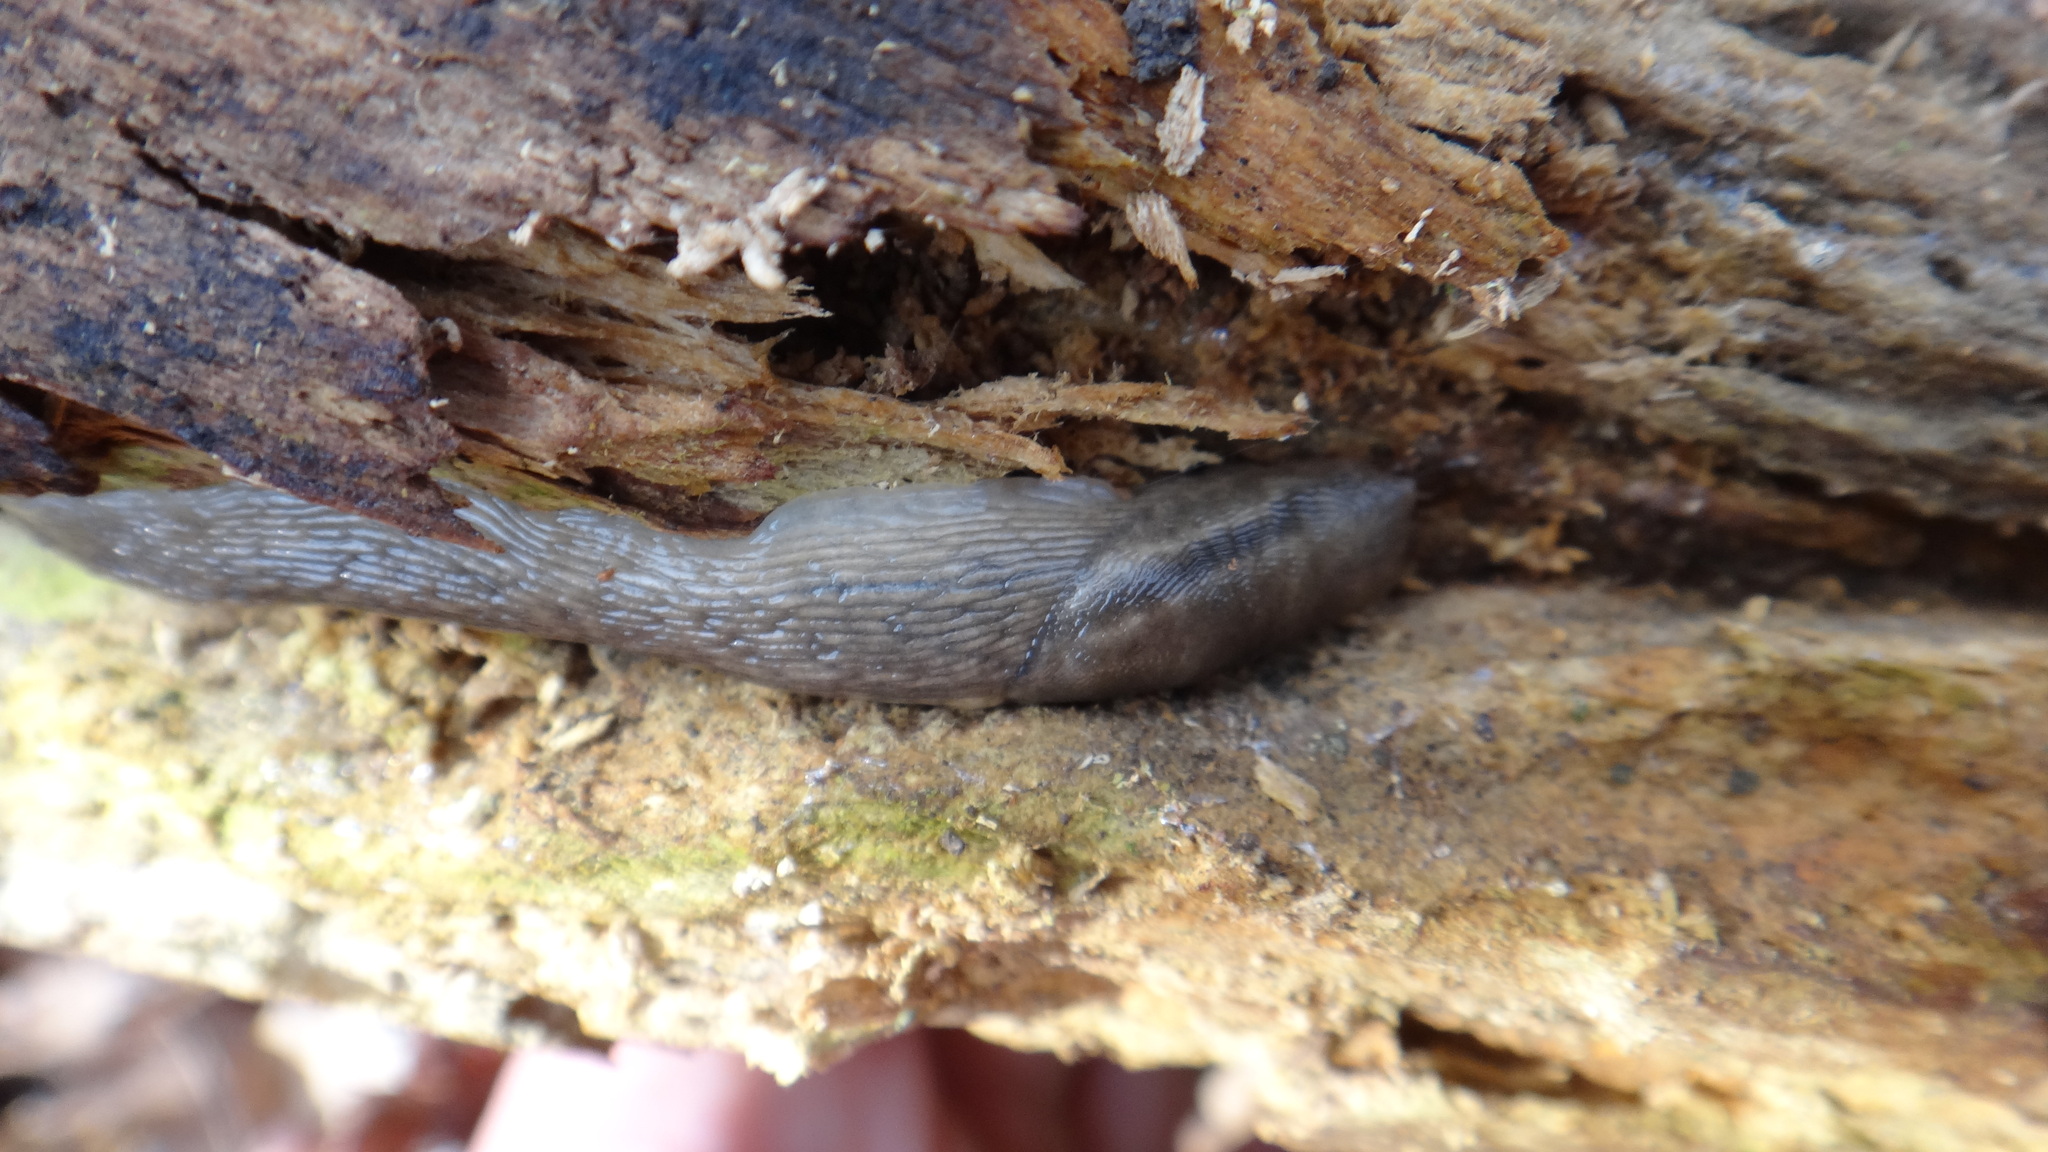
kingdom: Animalia
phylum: Mollusca
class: Gastropoda
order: Stylommatophora
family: Limacidae
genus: Lehmannia
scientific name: Lehmannia marginata
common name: Tree slug
